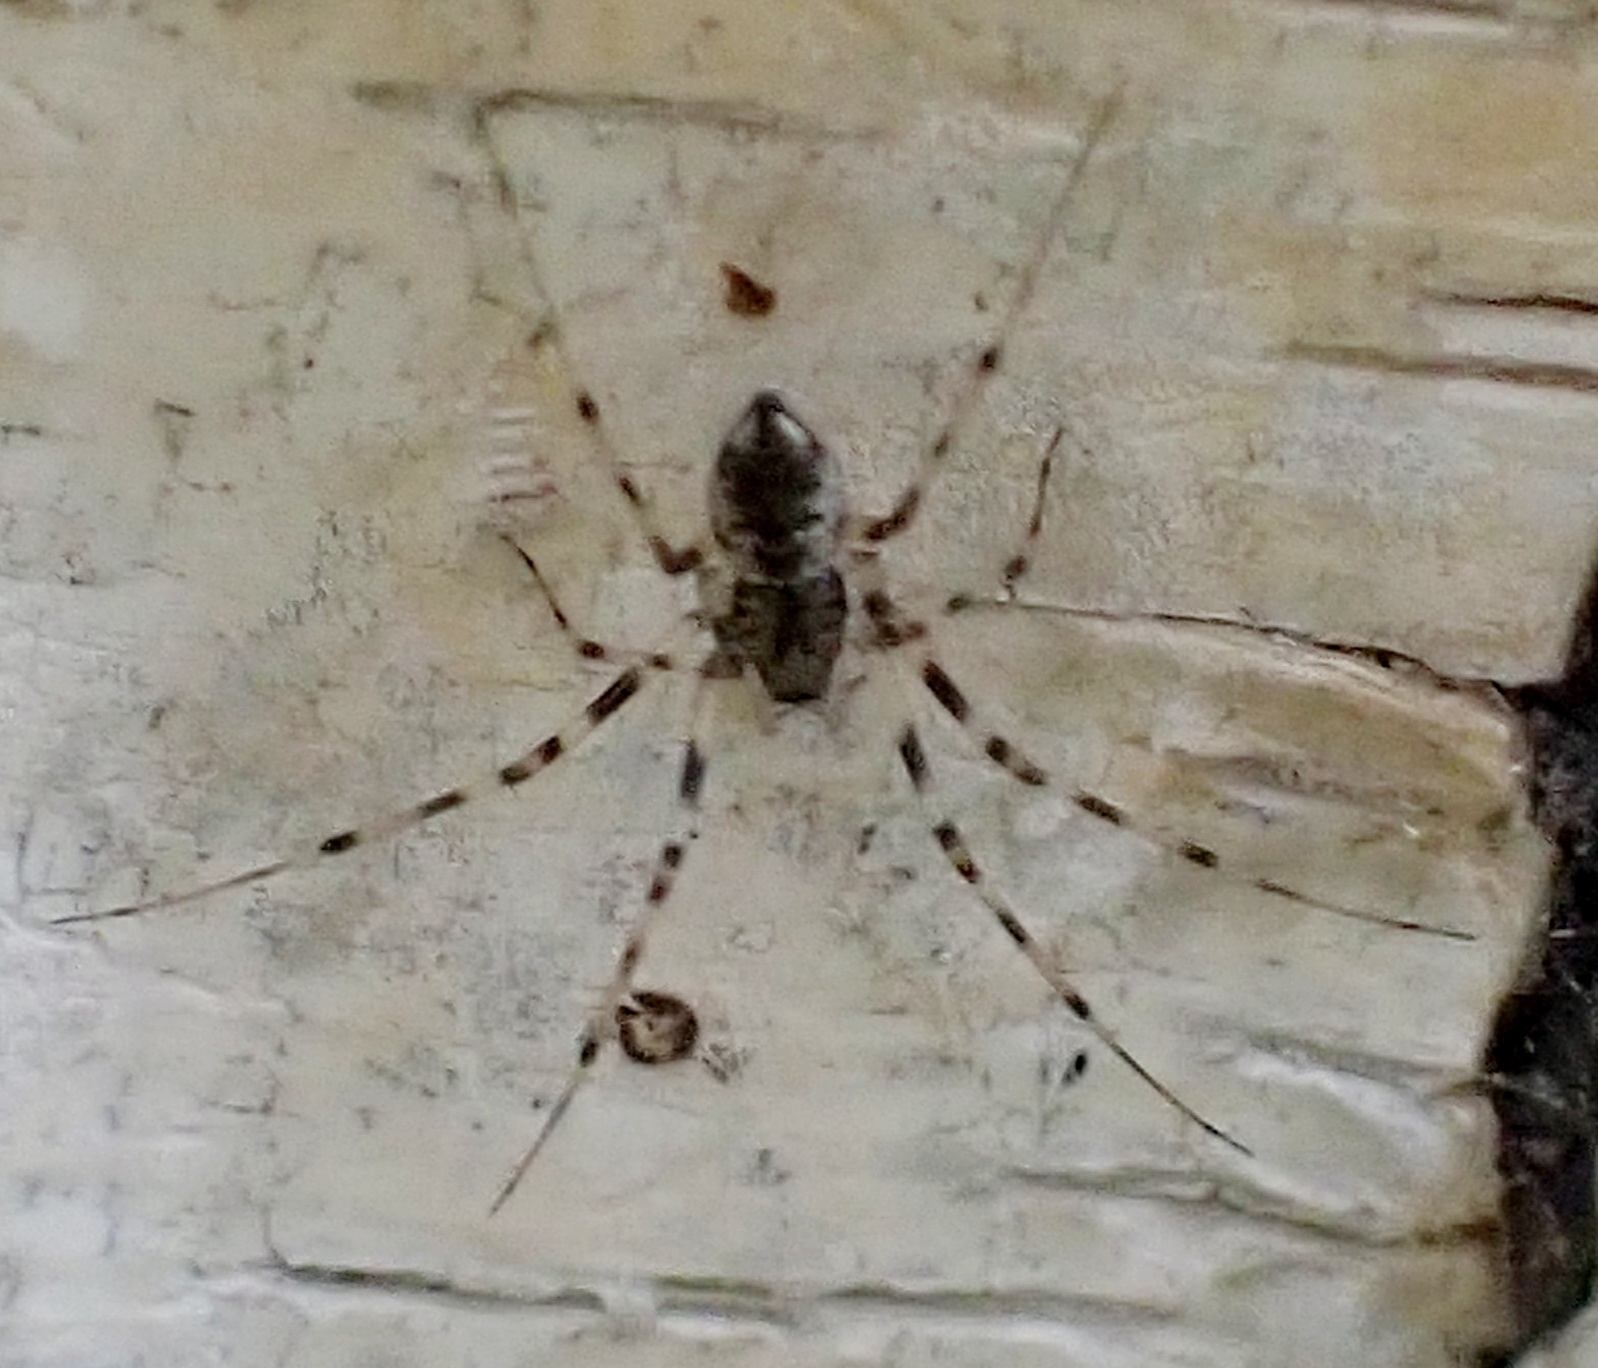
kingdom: Animalia
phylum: Arthropoda
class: Arachnida
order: Araneae
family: Linyphiidae
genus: Drapetisca
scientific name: Drapetisca socialis
